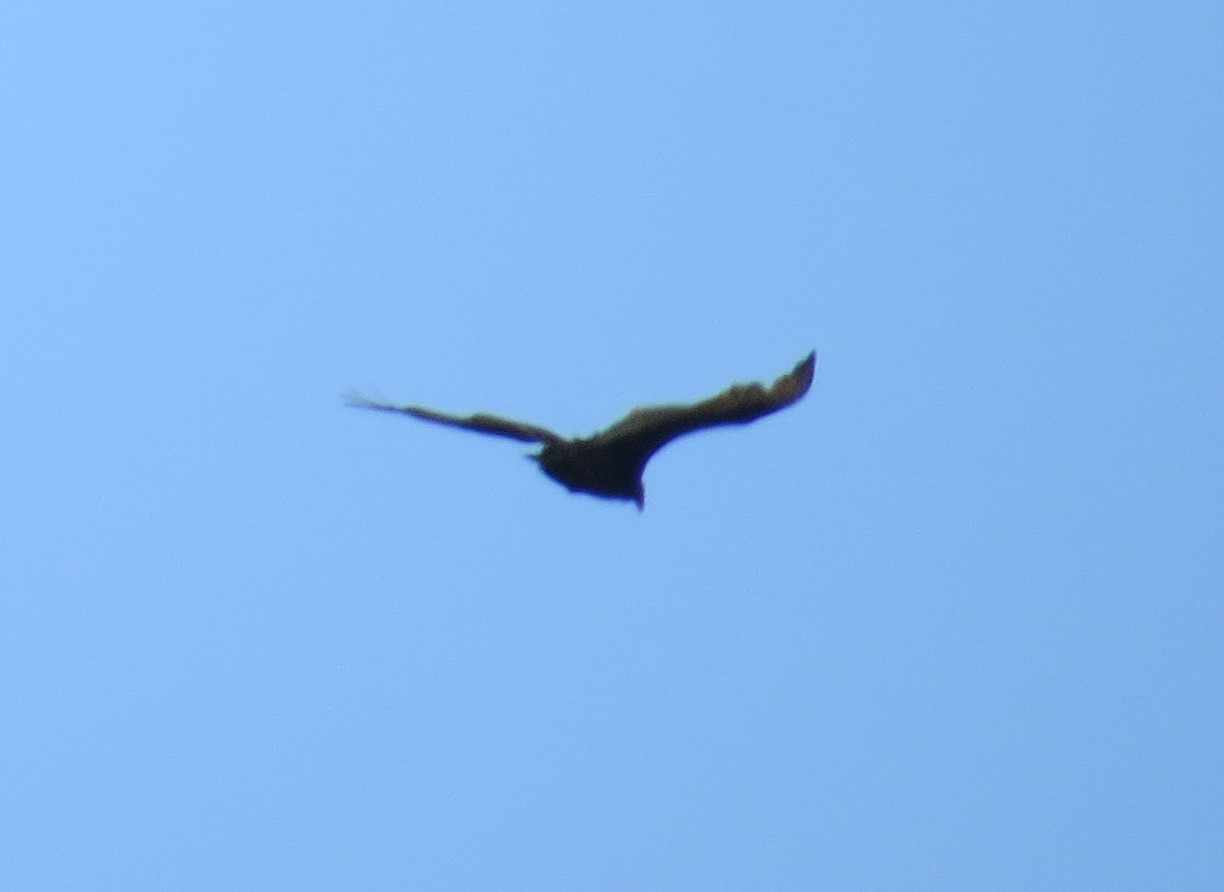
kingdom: Animalia
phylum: Chordata
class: Aves
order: Accipitriformes
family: Cathartidae
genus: Cathartes
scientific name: Cathartes aura
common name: Turkey vulture
